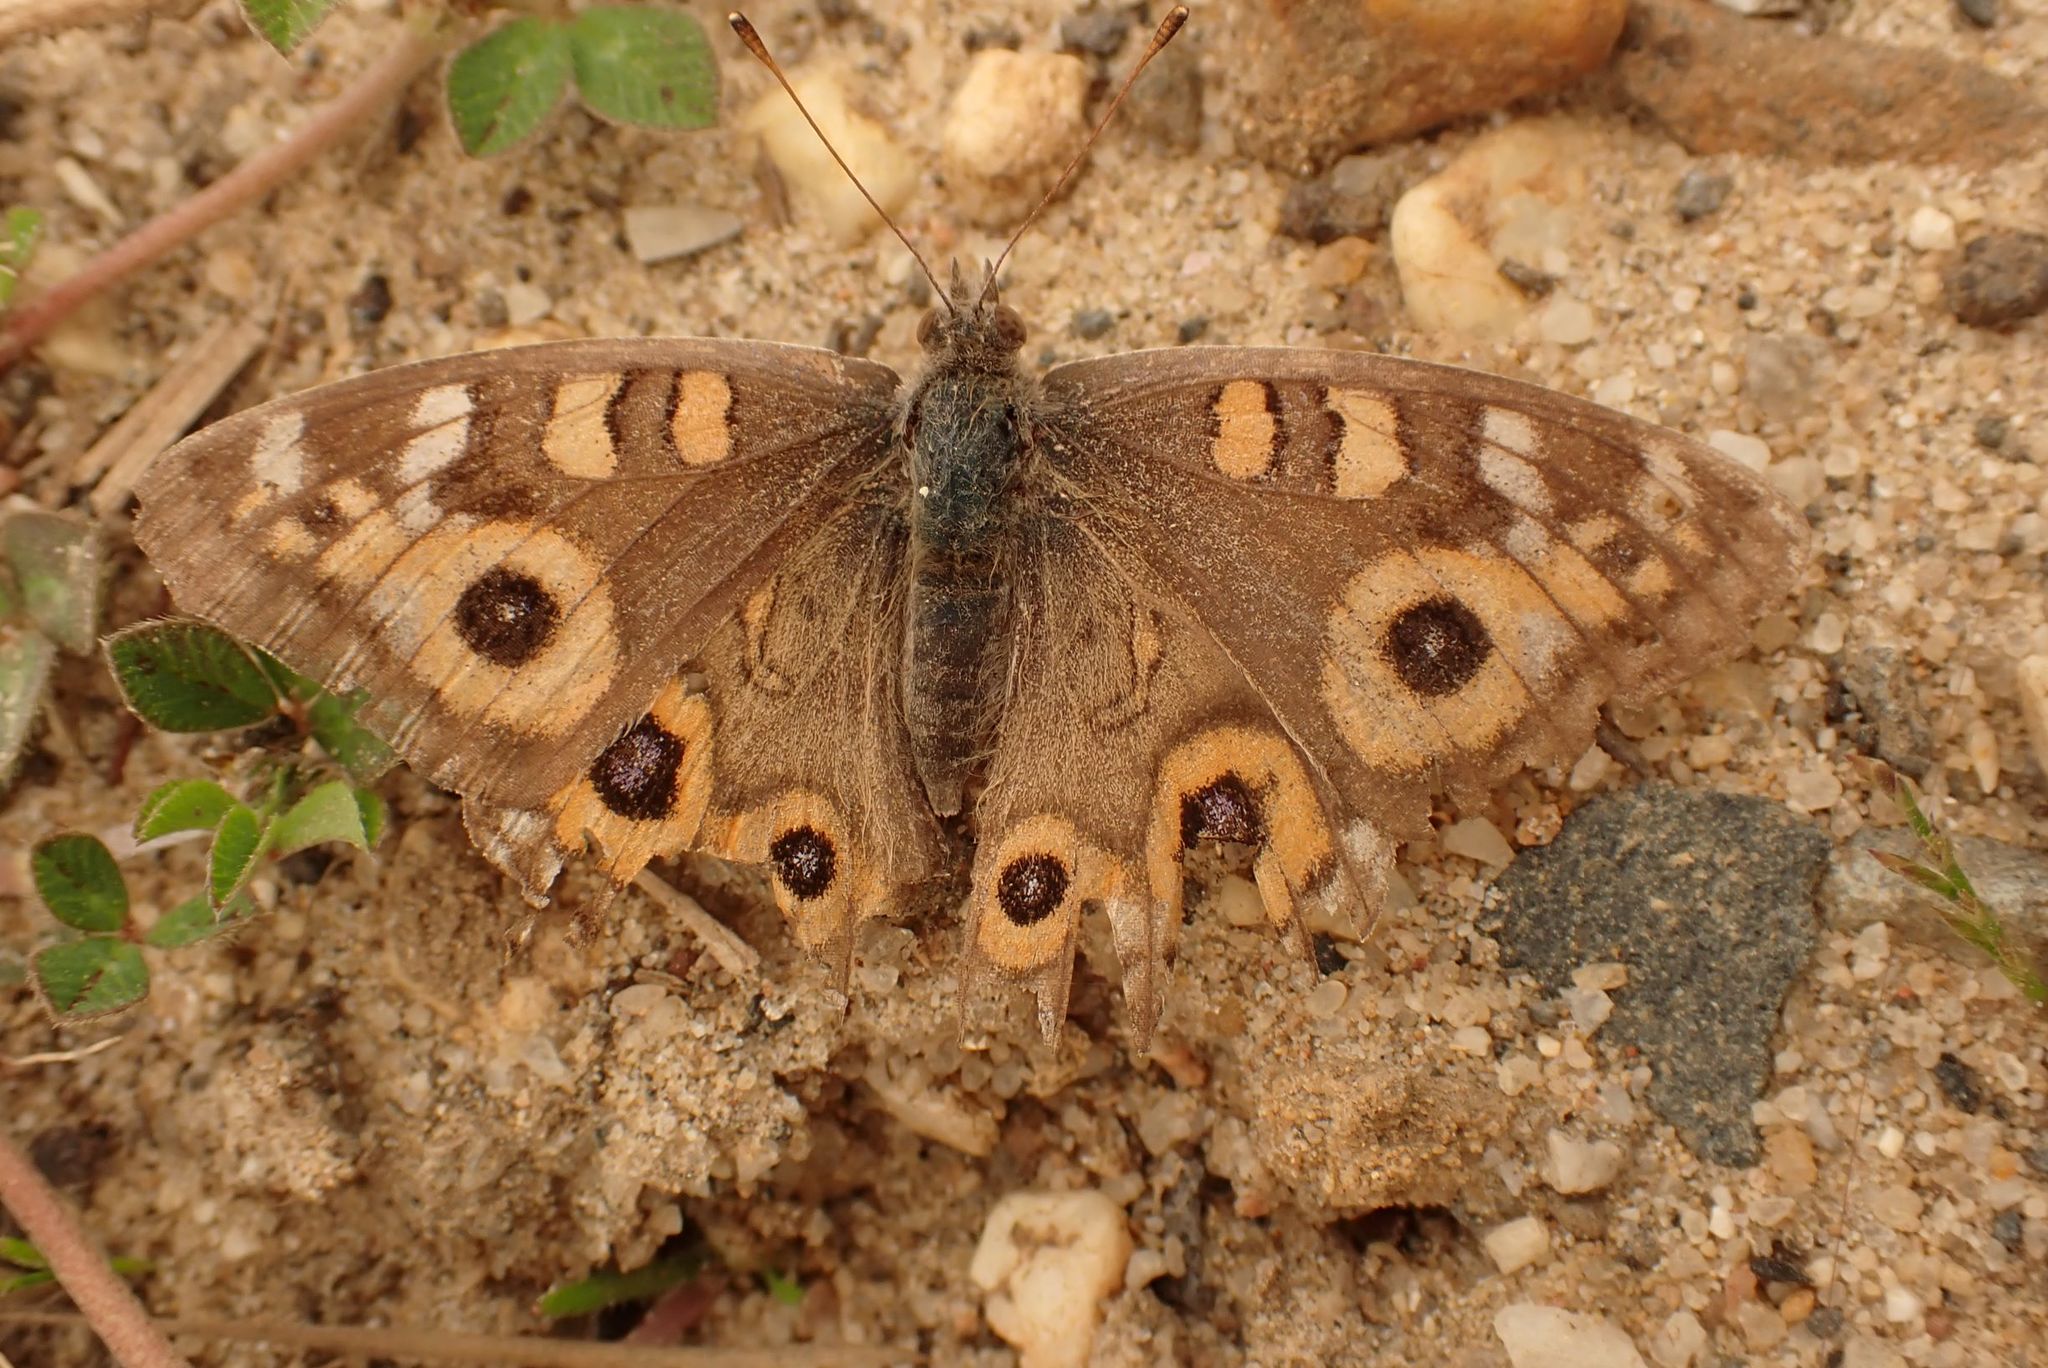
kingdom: Animalia
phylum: Arthropoda
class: Insecta
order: Lepidoptera
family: Nymphalidae
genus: Junonia
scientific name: Junonia villida
